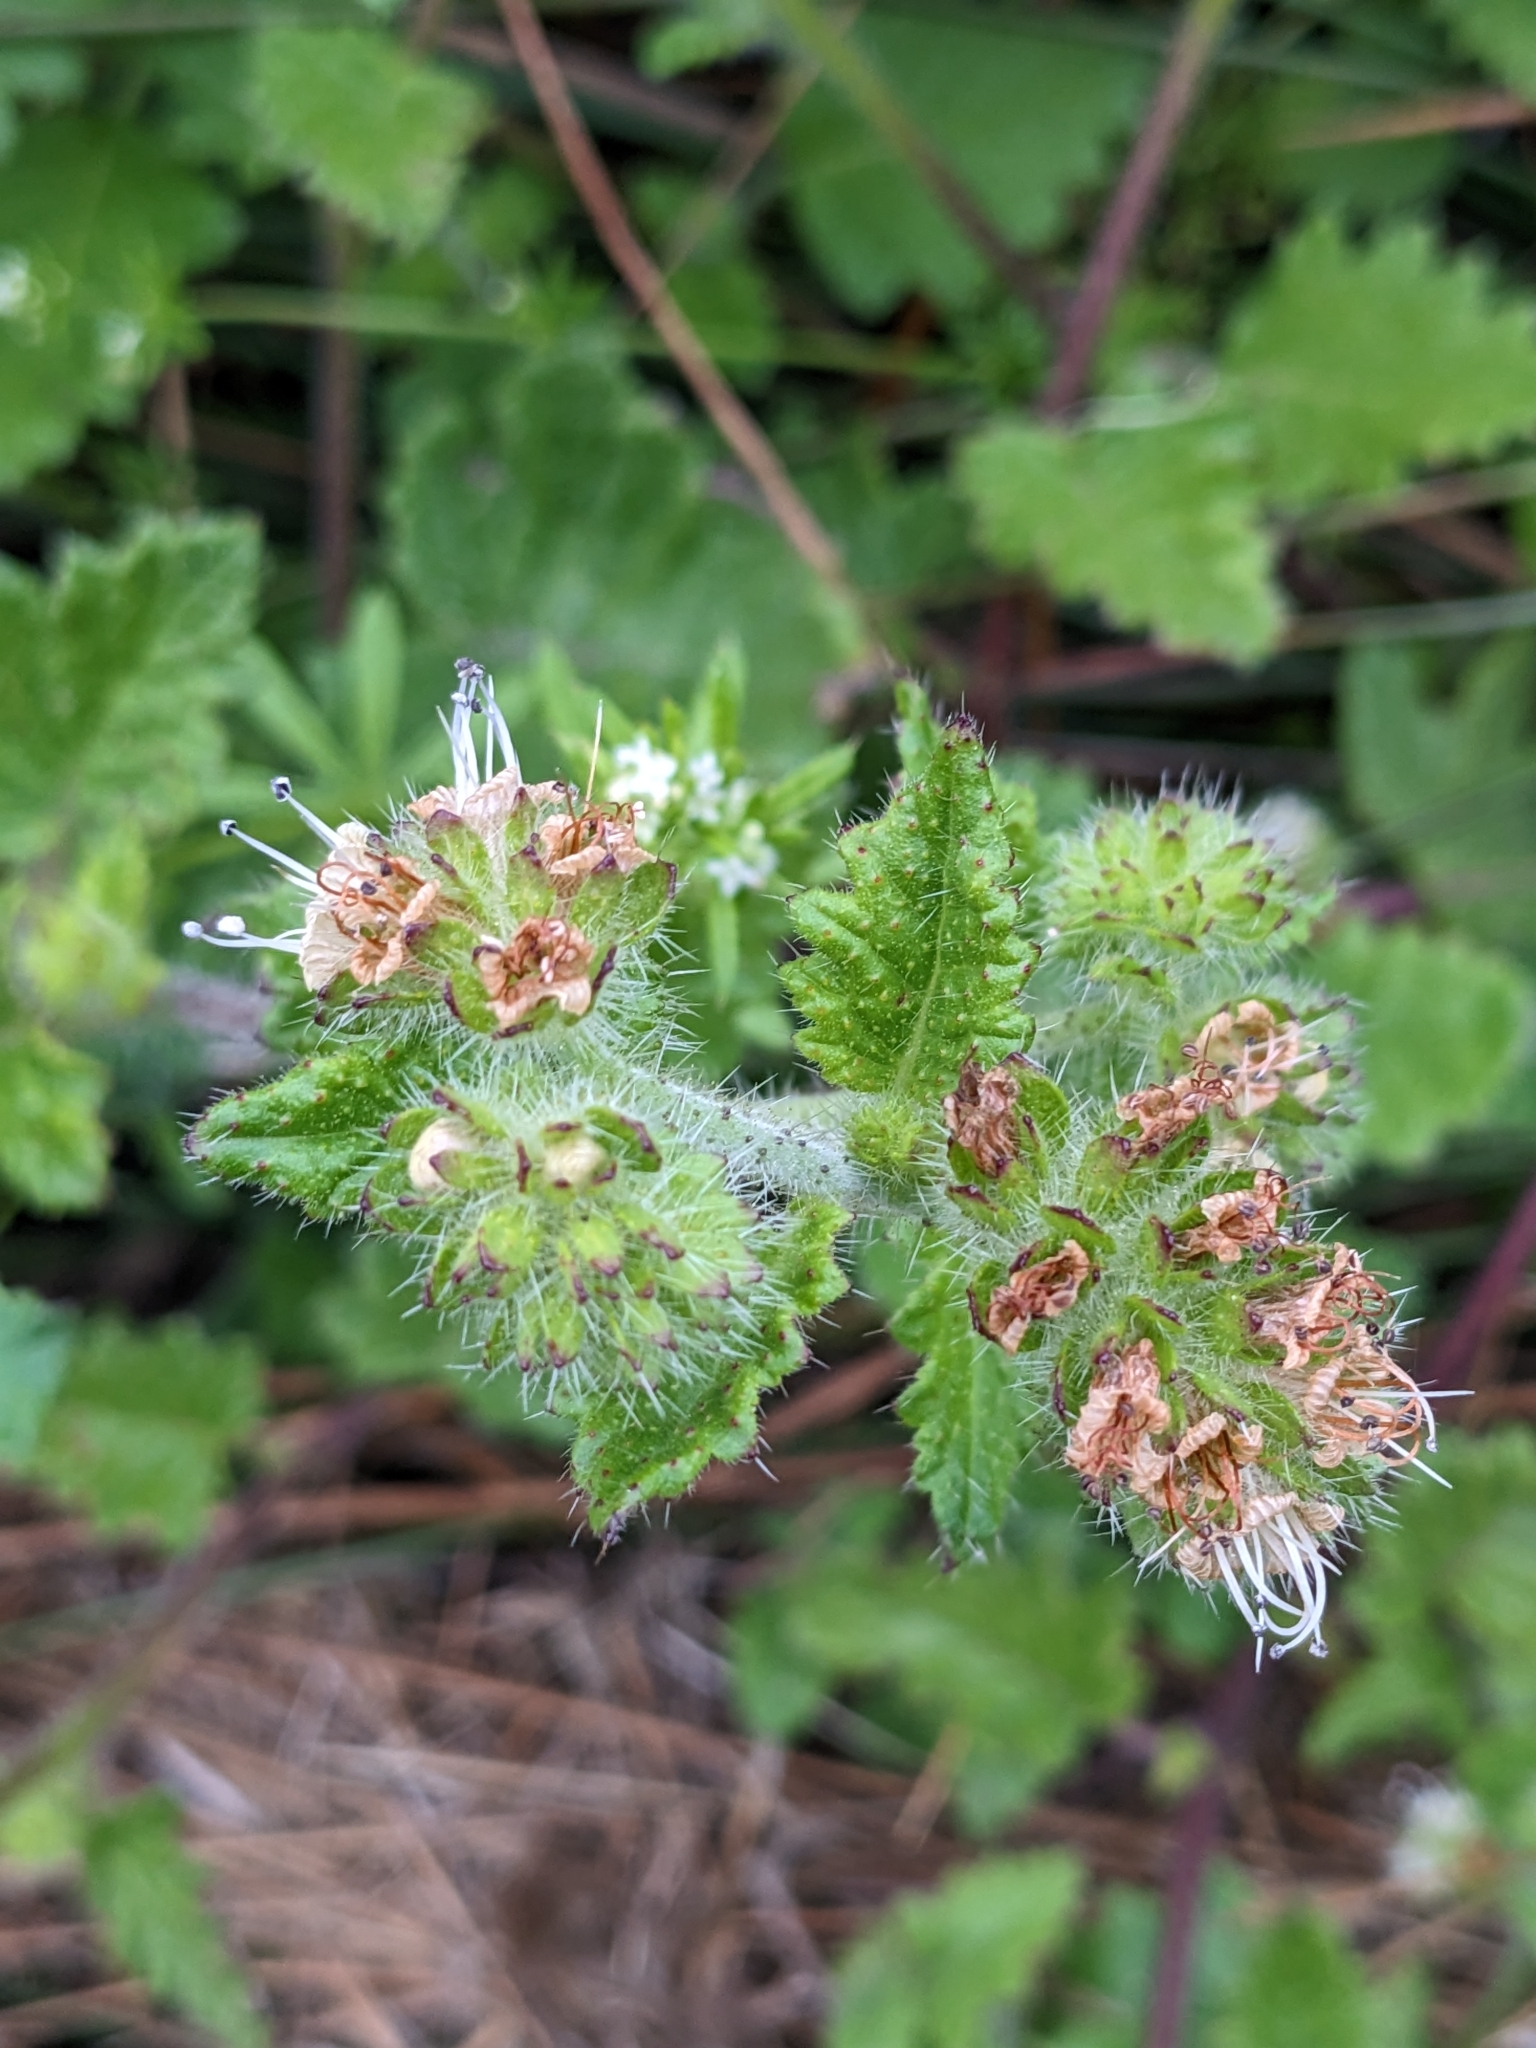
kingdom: Plantae
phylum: Tracheophyta
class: Magnoliopsida
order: Boraginales
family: Hydrophyllaceae
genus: Phacelia
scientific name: Phacelia malvifolia
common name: Mallow-leaf phacelia
